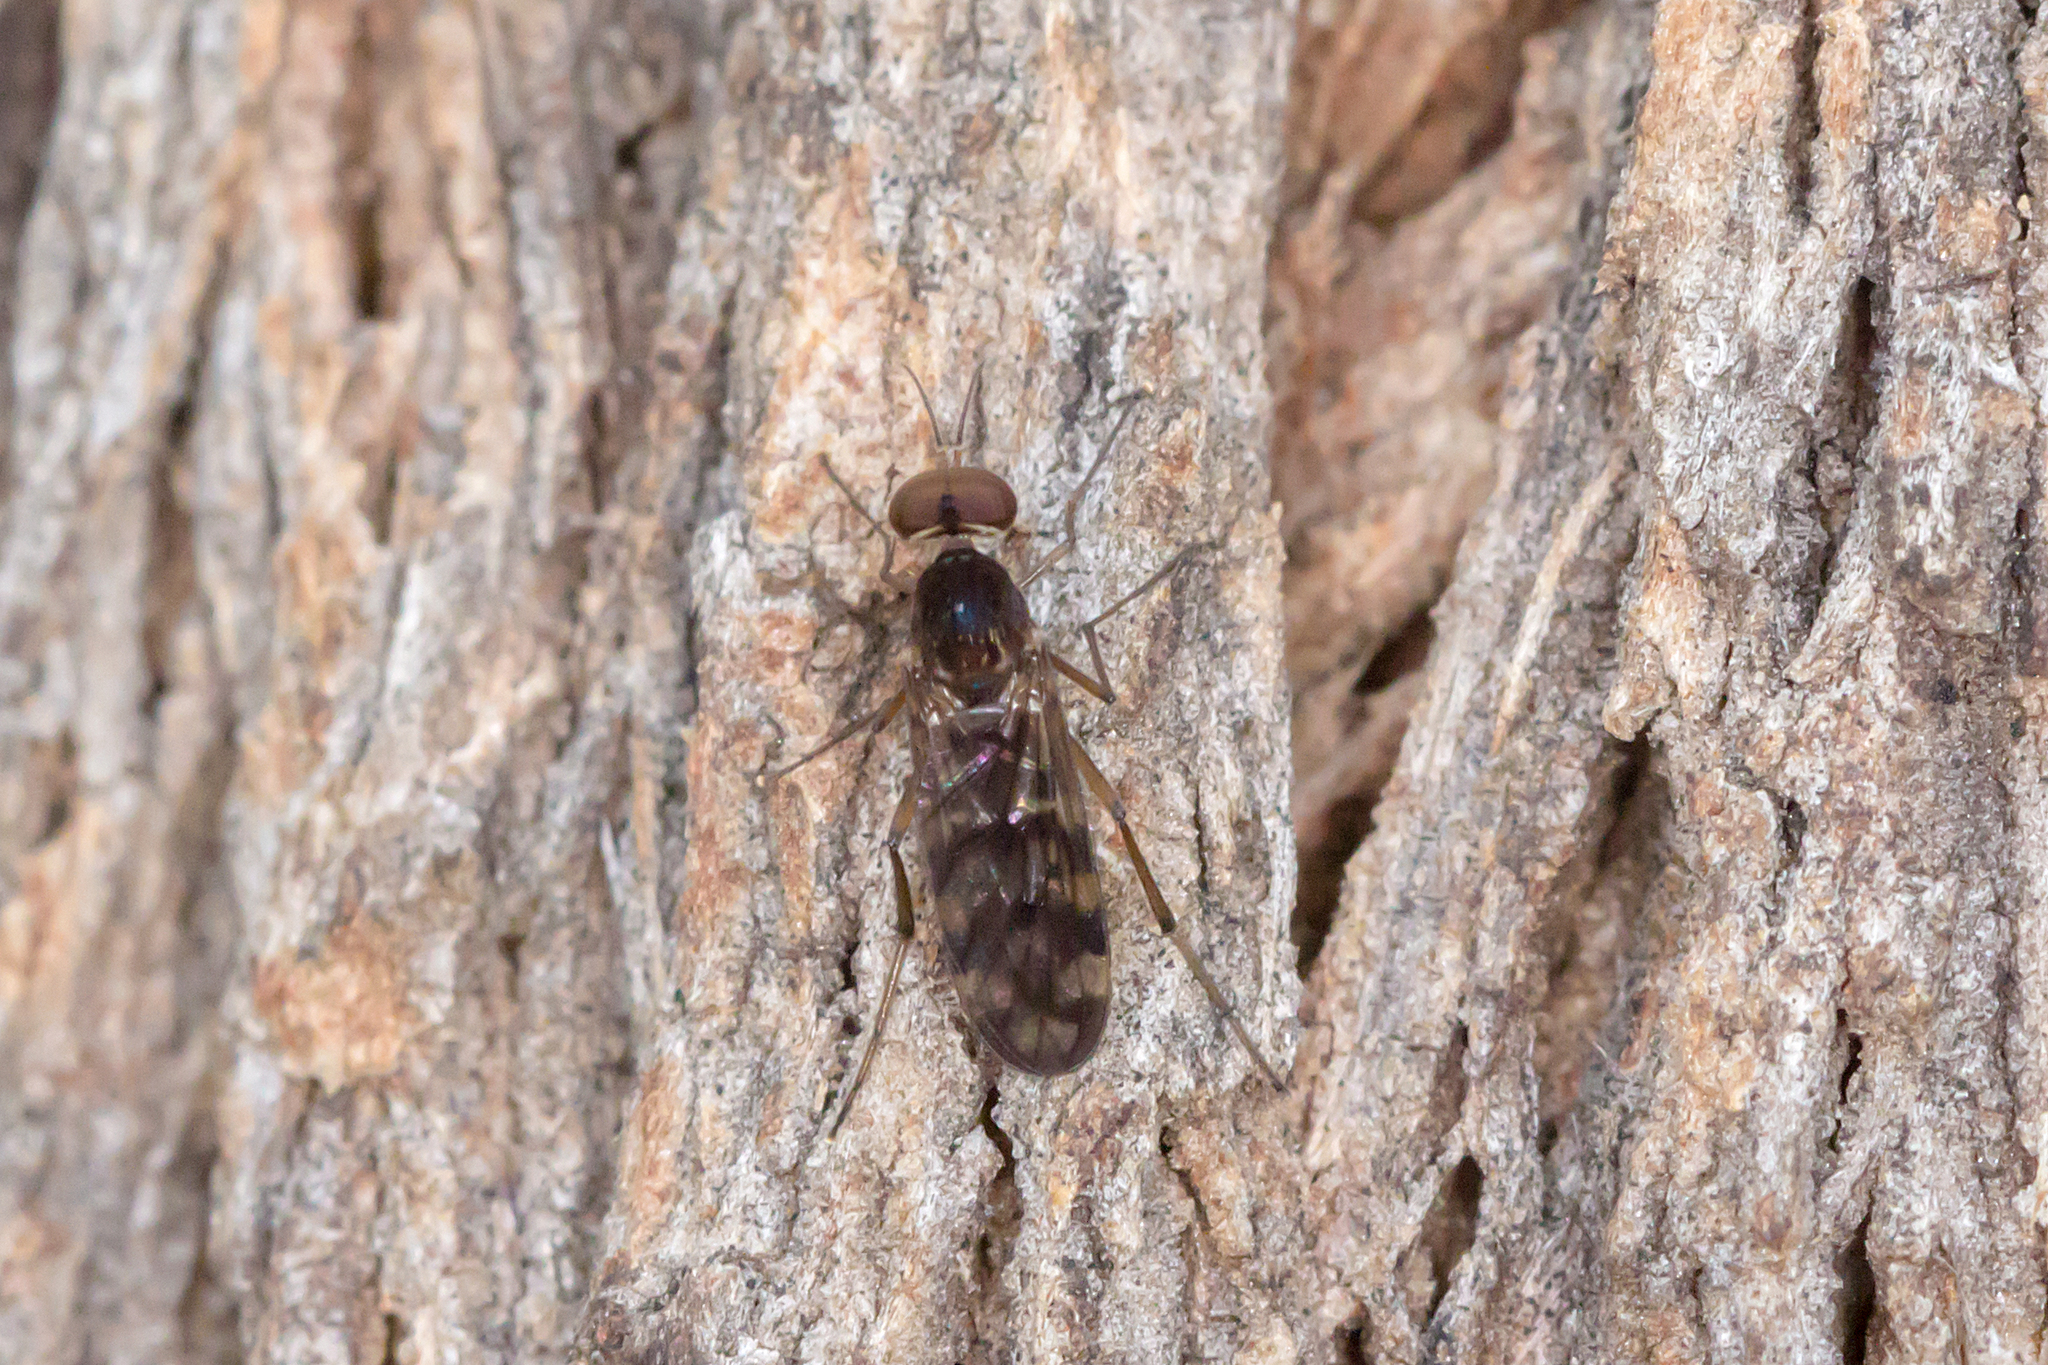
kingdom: Animalia
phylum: Arthropoda
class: Insecta
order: Diptera
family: Anisopodidae
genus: Sylvicola
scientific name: Sylvicola dubius
